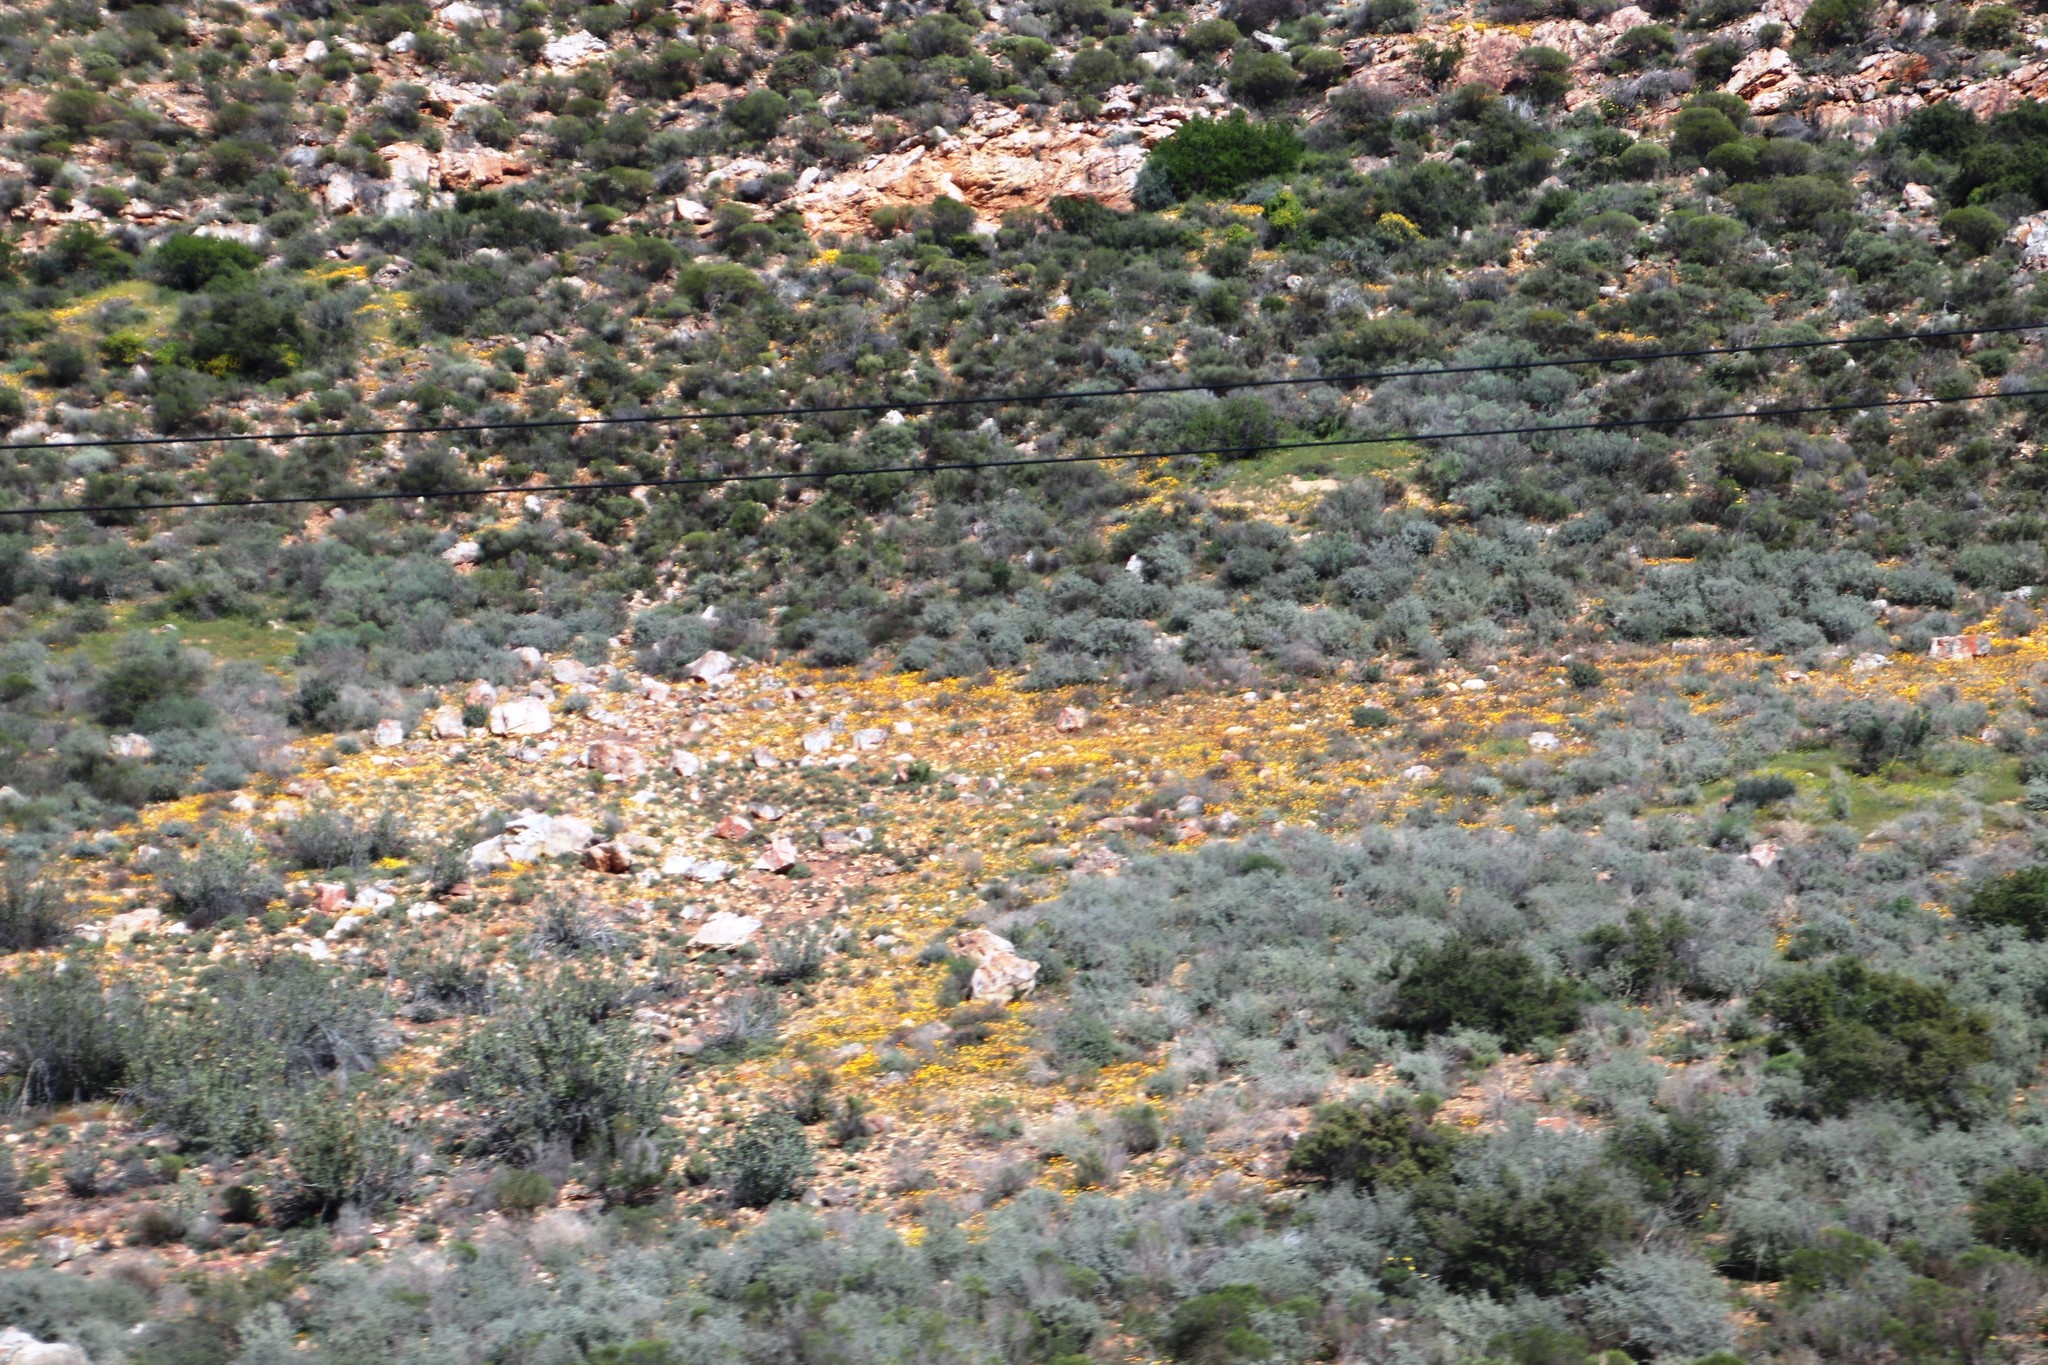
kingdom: Plantae
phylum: Tracheophyta
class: Magnoliopsida
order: Asterales
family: Asteraceae
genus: Dimorphotheca
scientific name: Dimorphotheca sinuata
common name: Glandular cape marigold
